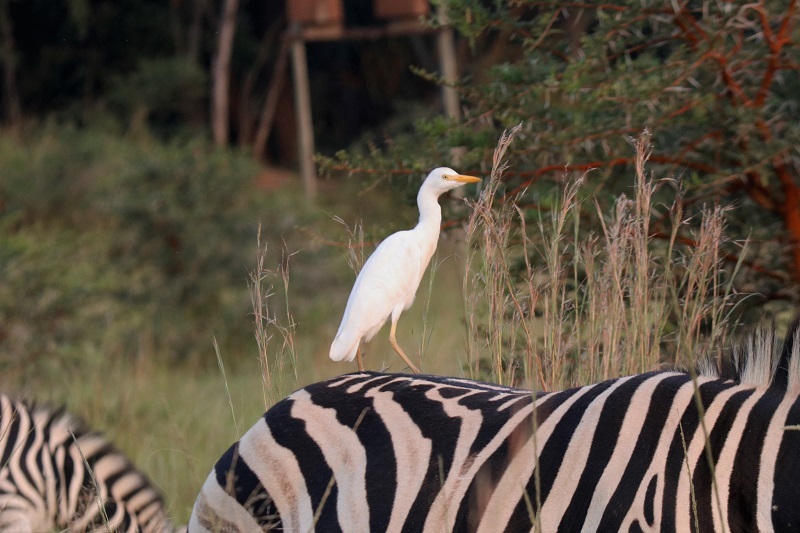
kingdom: Animalia
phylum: Chordata
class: Aves
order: Pelecaniformes
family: Ardeidae
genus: Bubulcus
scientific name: Bubulcus ibis
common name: Cattle egret
